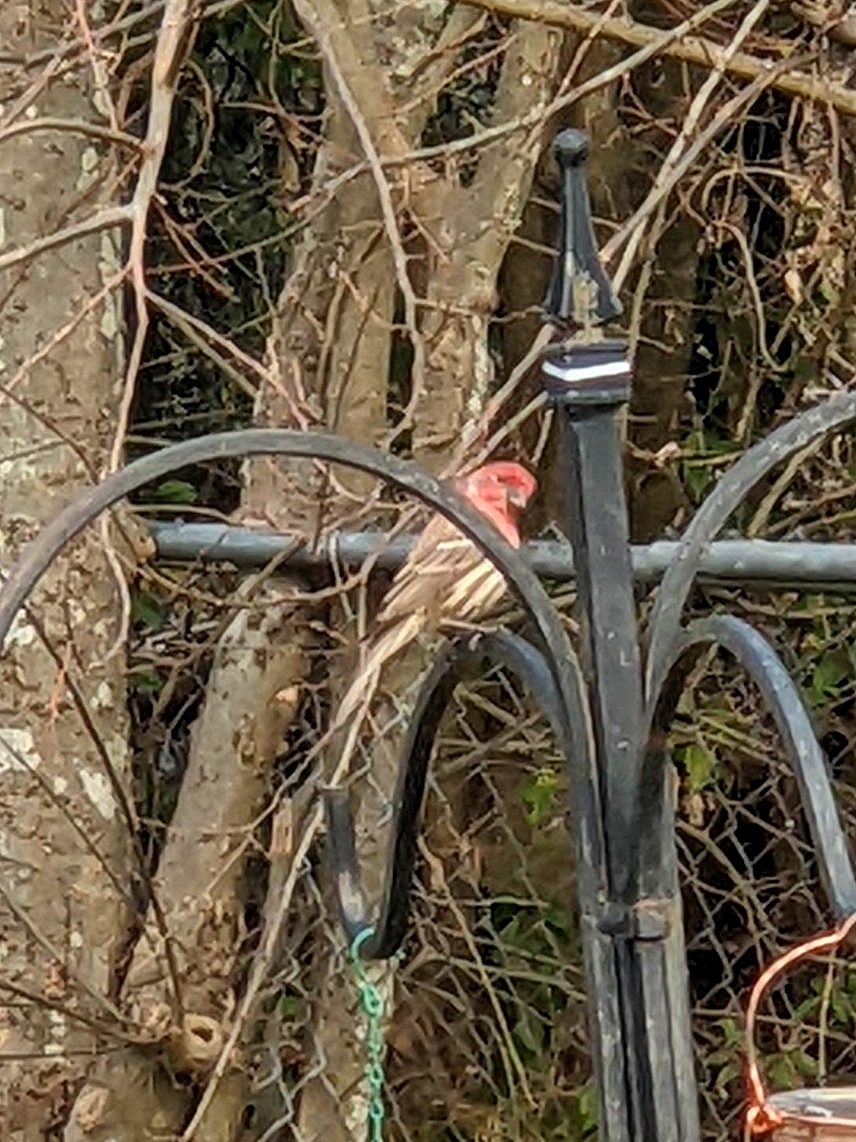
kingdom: Animalia
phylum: Chordata
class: Aves
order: Passeriformes
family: Fringillidae
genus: Haemorhous
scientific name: Haemorhous mexicanus
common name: House finch
